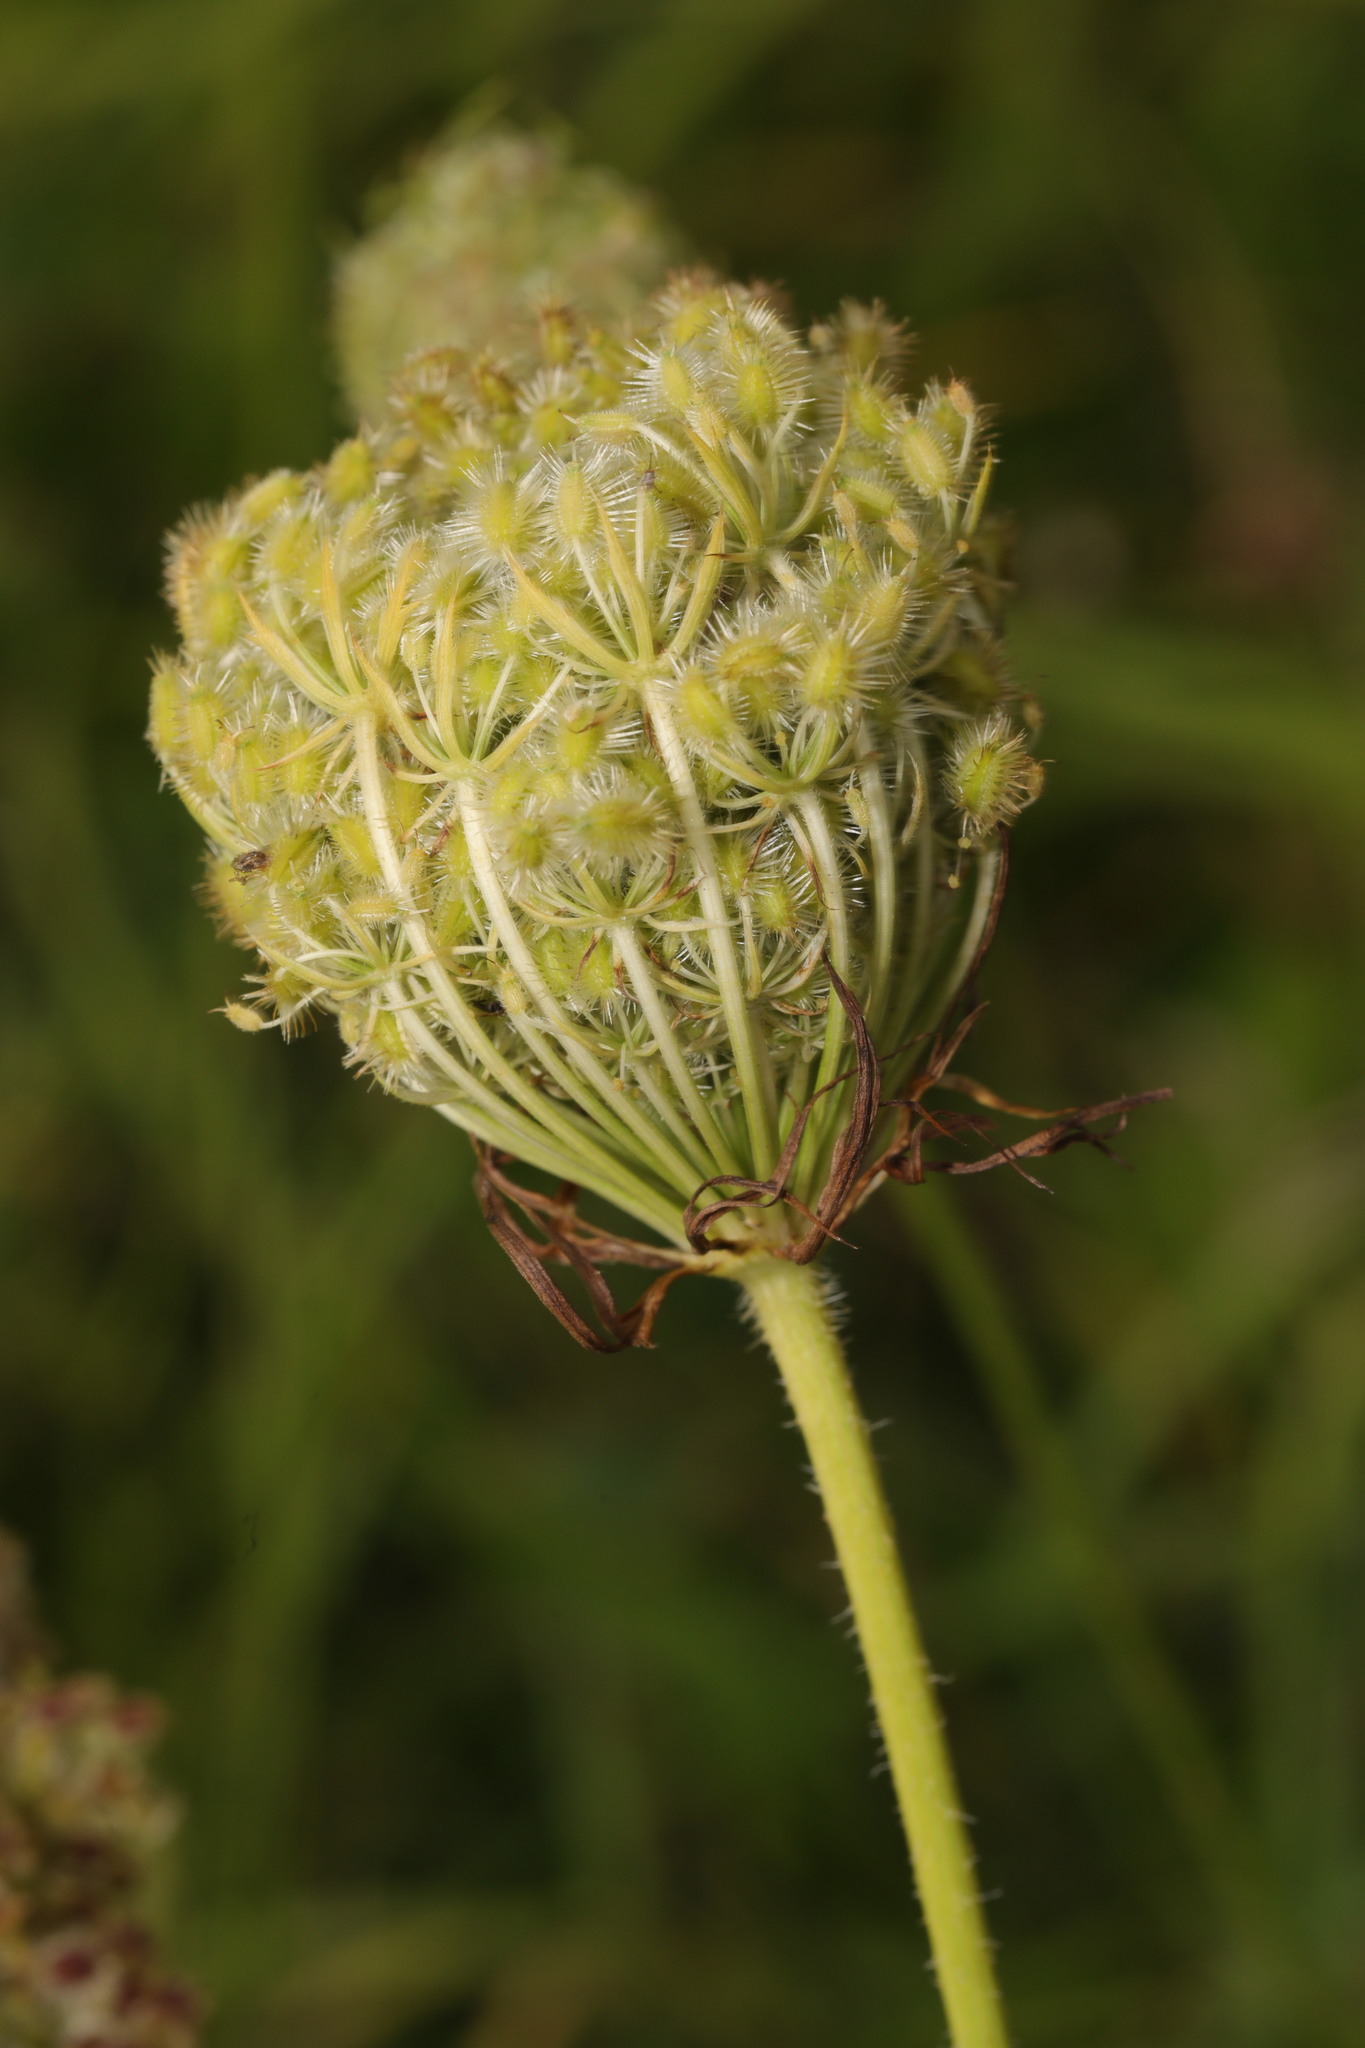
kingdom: Plantae
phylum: Tracheophyta
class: Magnoliopsida
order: Apiales
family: Apiaceae
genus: Daucus
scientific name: Daucus carota
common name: Wild carrot
